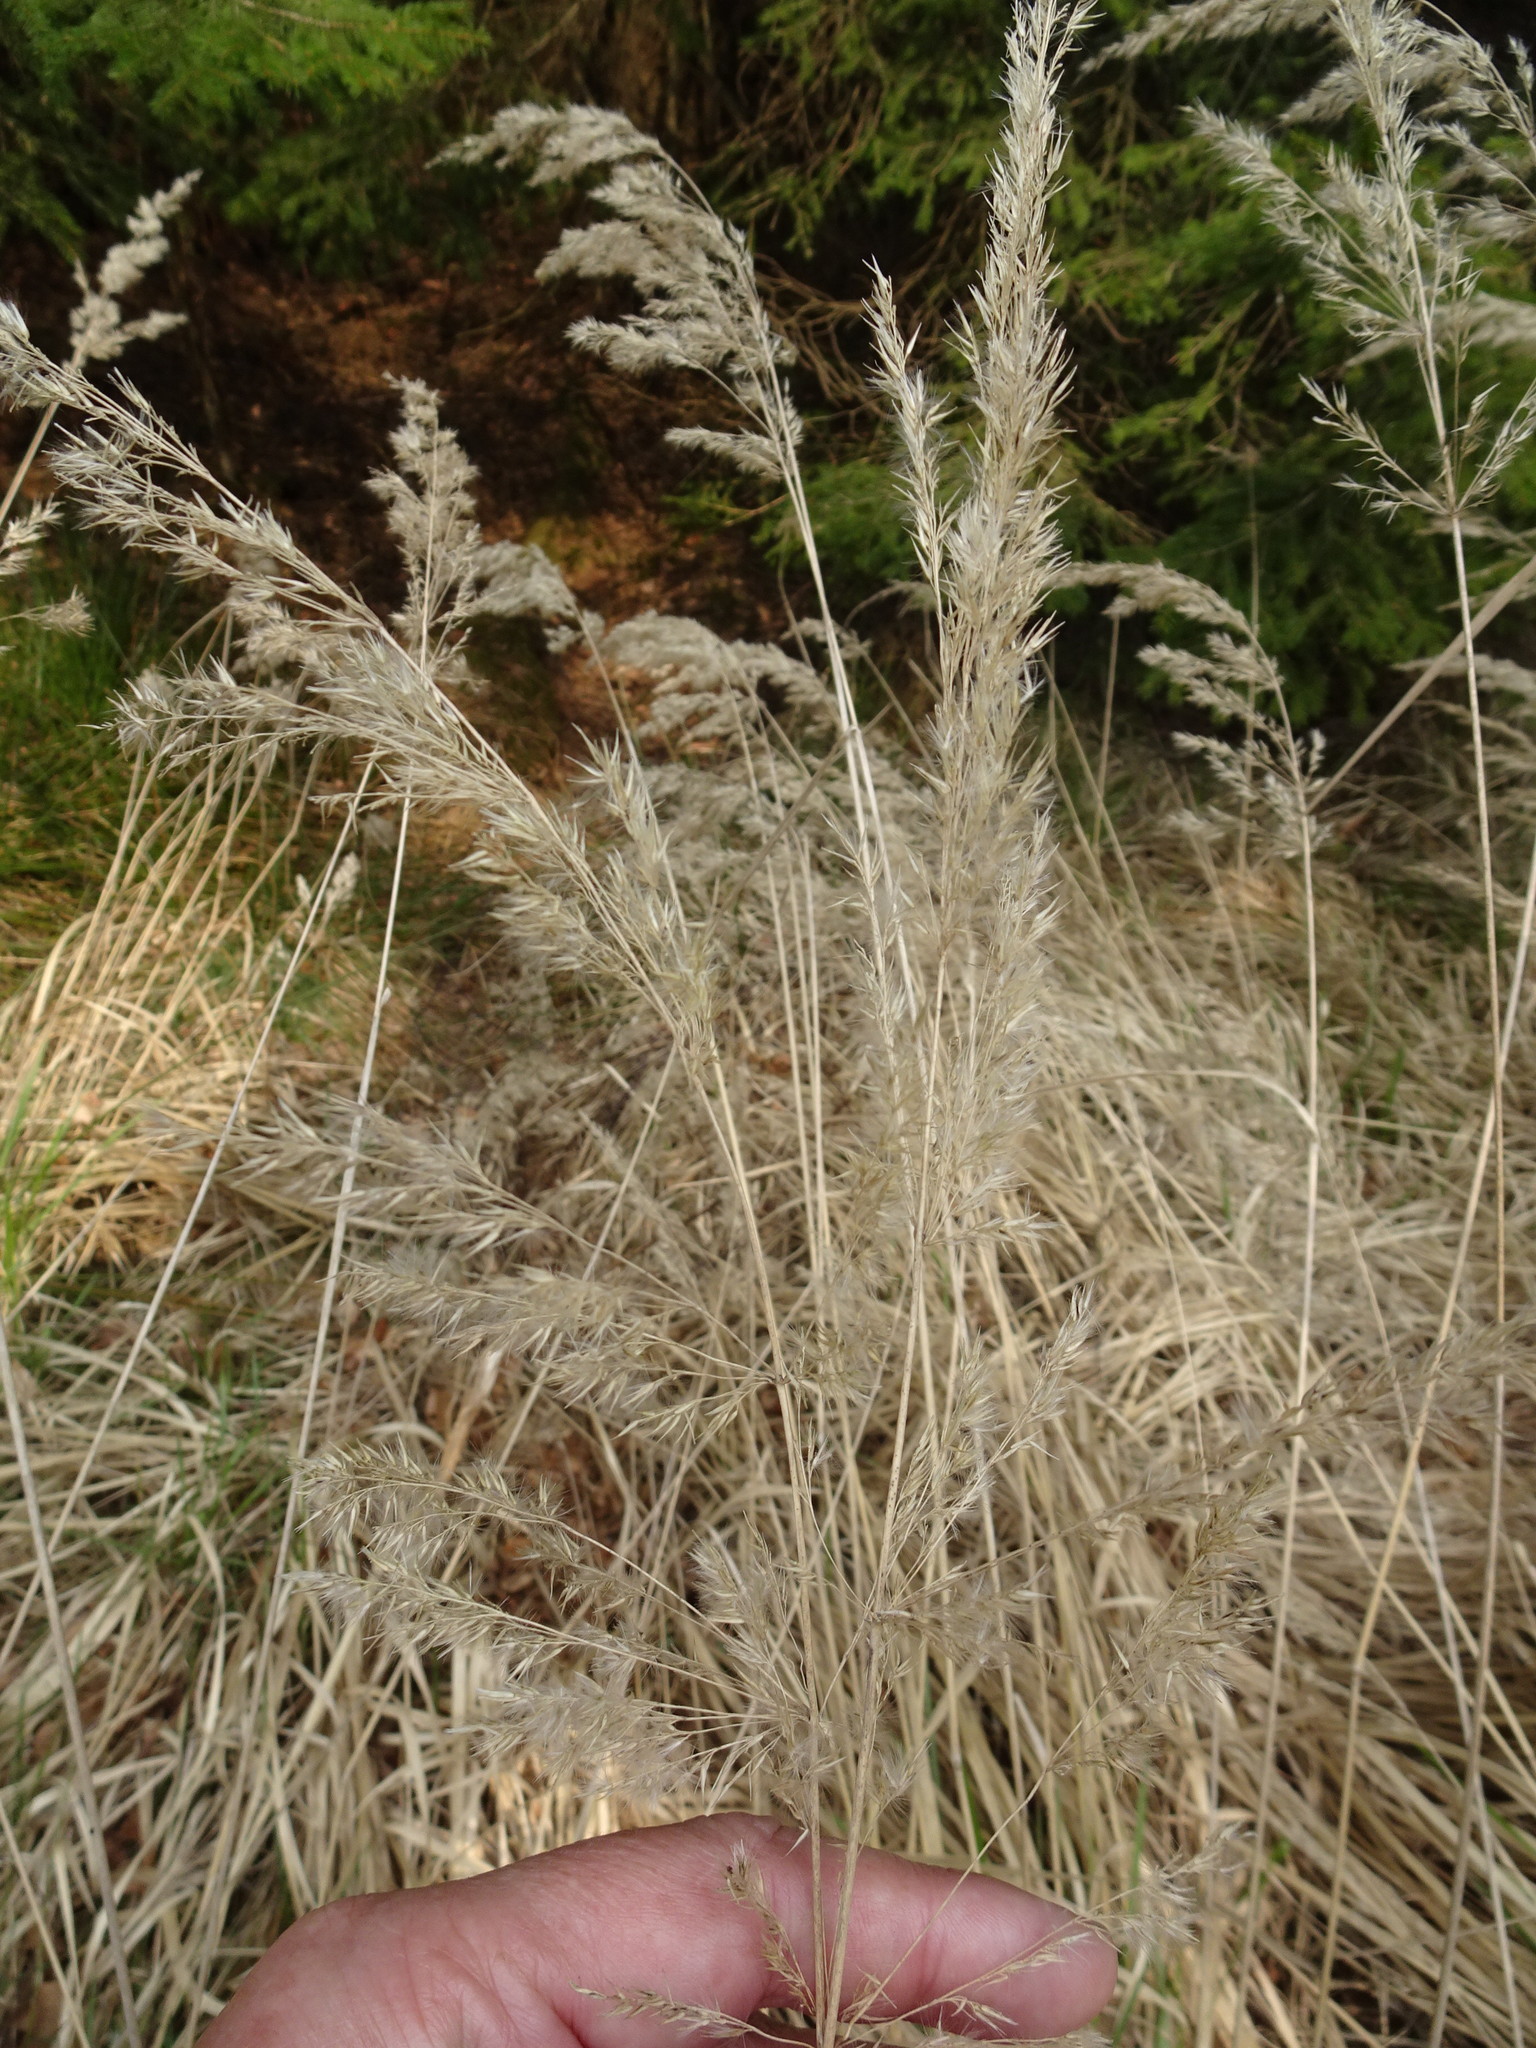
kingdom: Plantae
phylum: Tracheophyta
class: Liliopsida
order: Poales
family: Poaceae
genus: Calamagrostis
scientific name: Calamagrostis epigejos
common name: Wood small-reed
